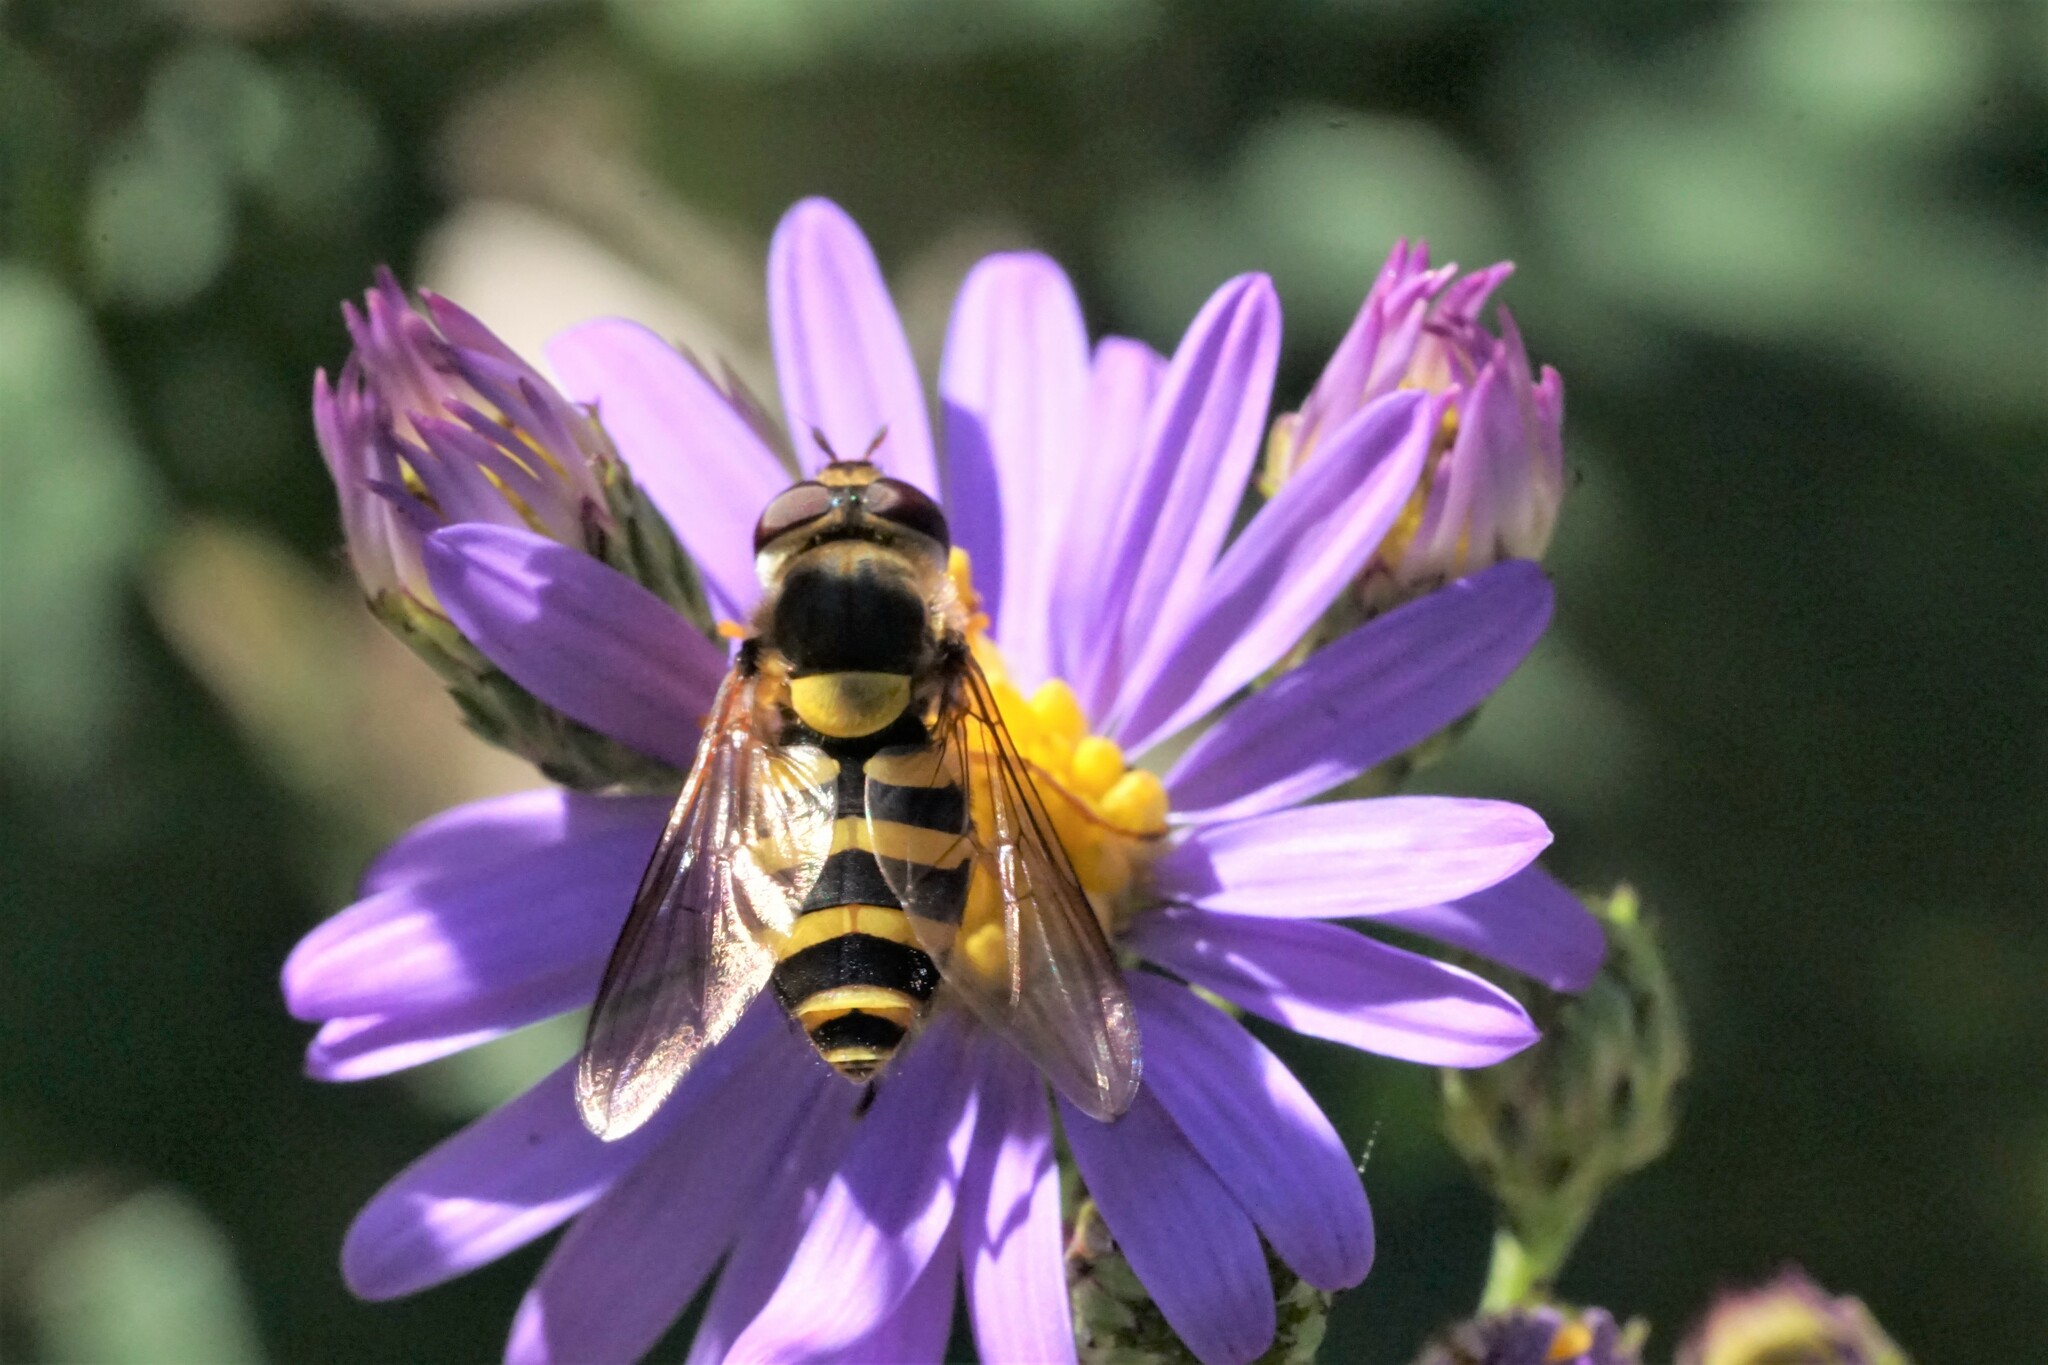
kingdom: Animalia
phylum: Arthropoda
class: Insecta
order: Diptera
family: Syrphidae
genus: Syrphus
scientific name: Syrphus
